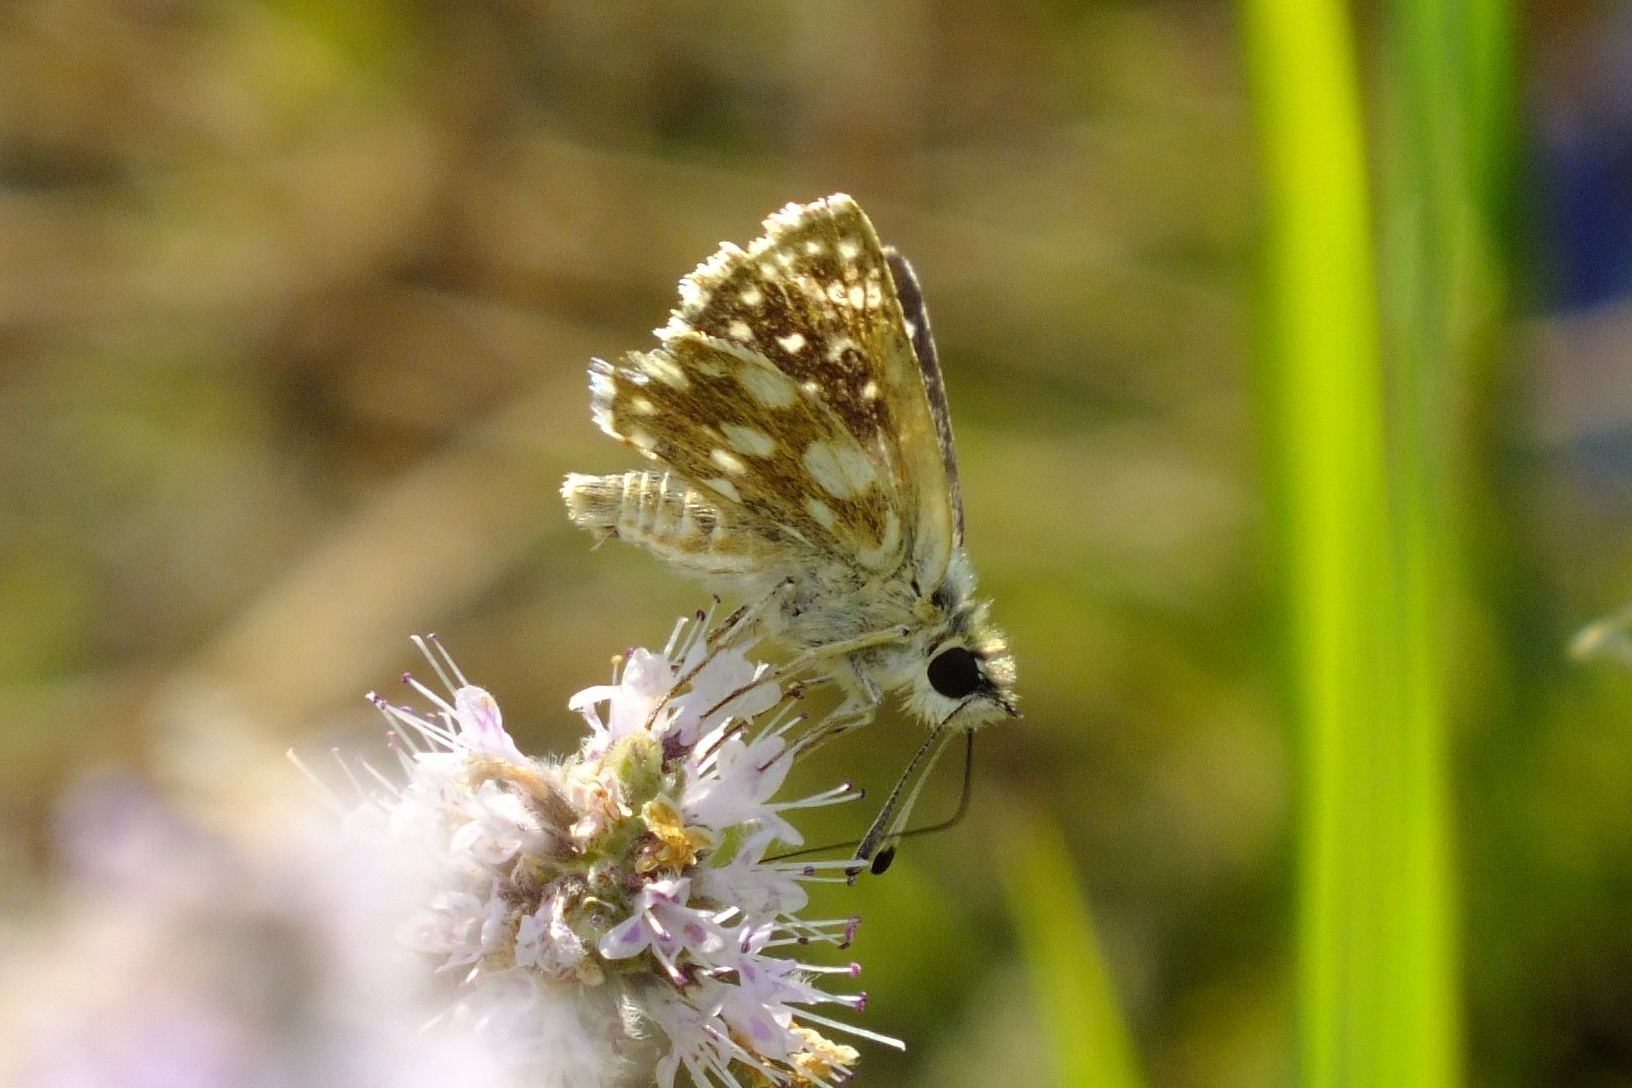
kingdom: Animalia
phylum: Arthropoda
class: Insecta
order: Lepidoptera
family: Hesperiidae
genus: Spialia
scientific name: Spialia sertorius
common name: Red underwing skipper
